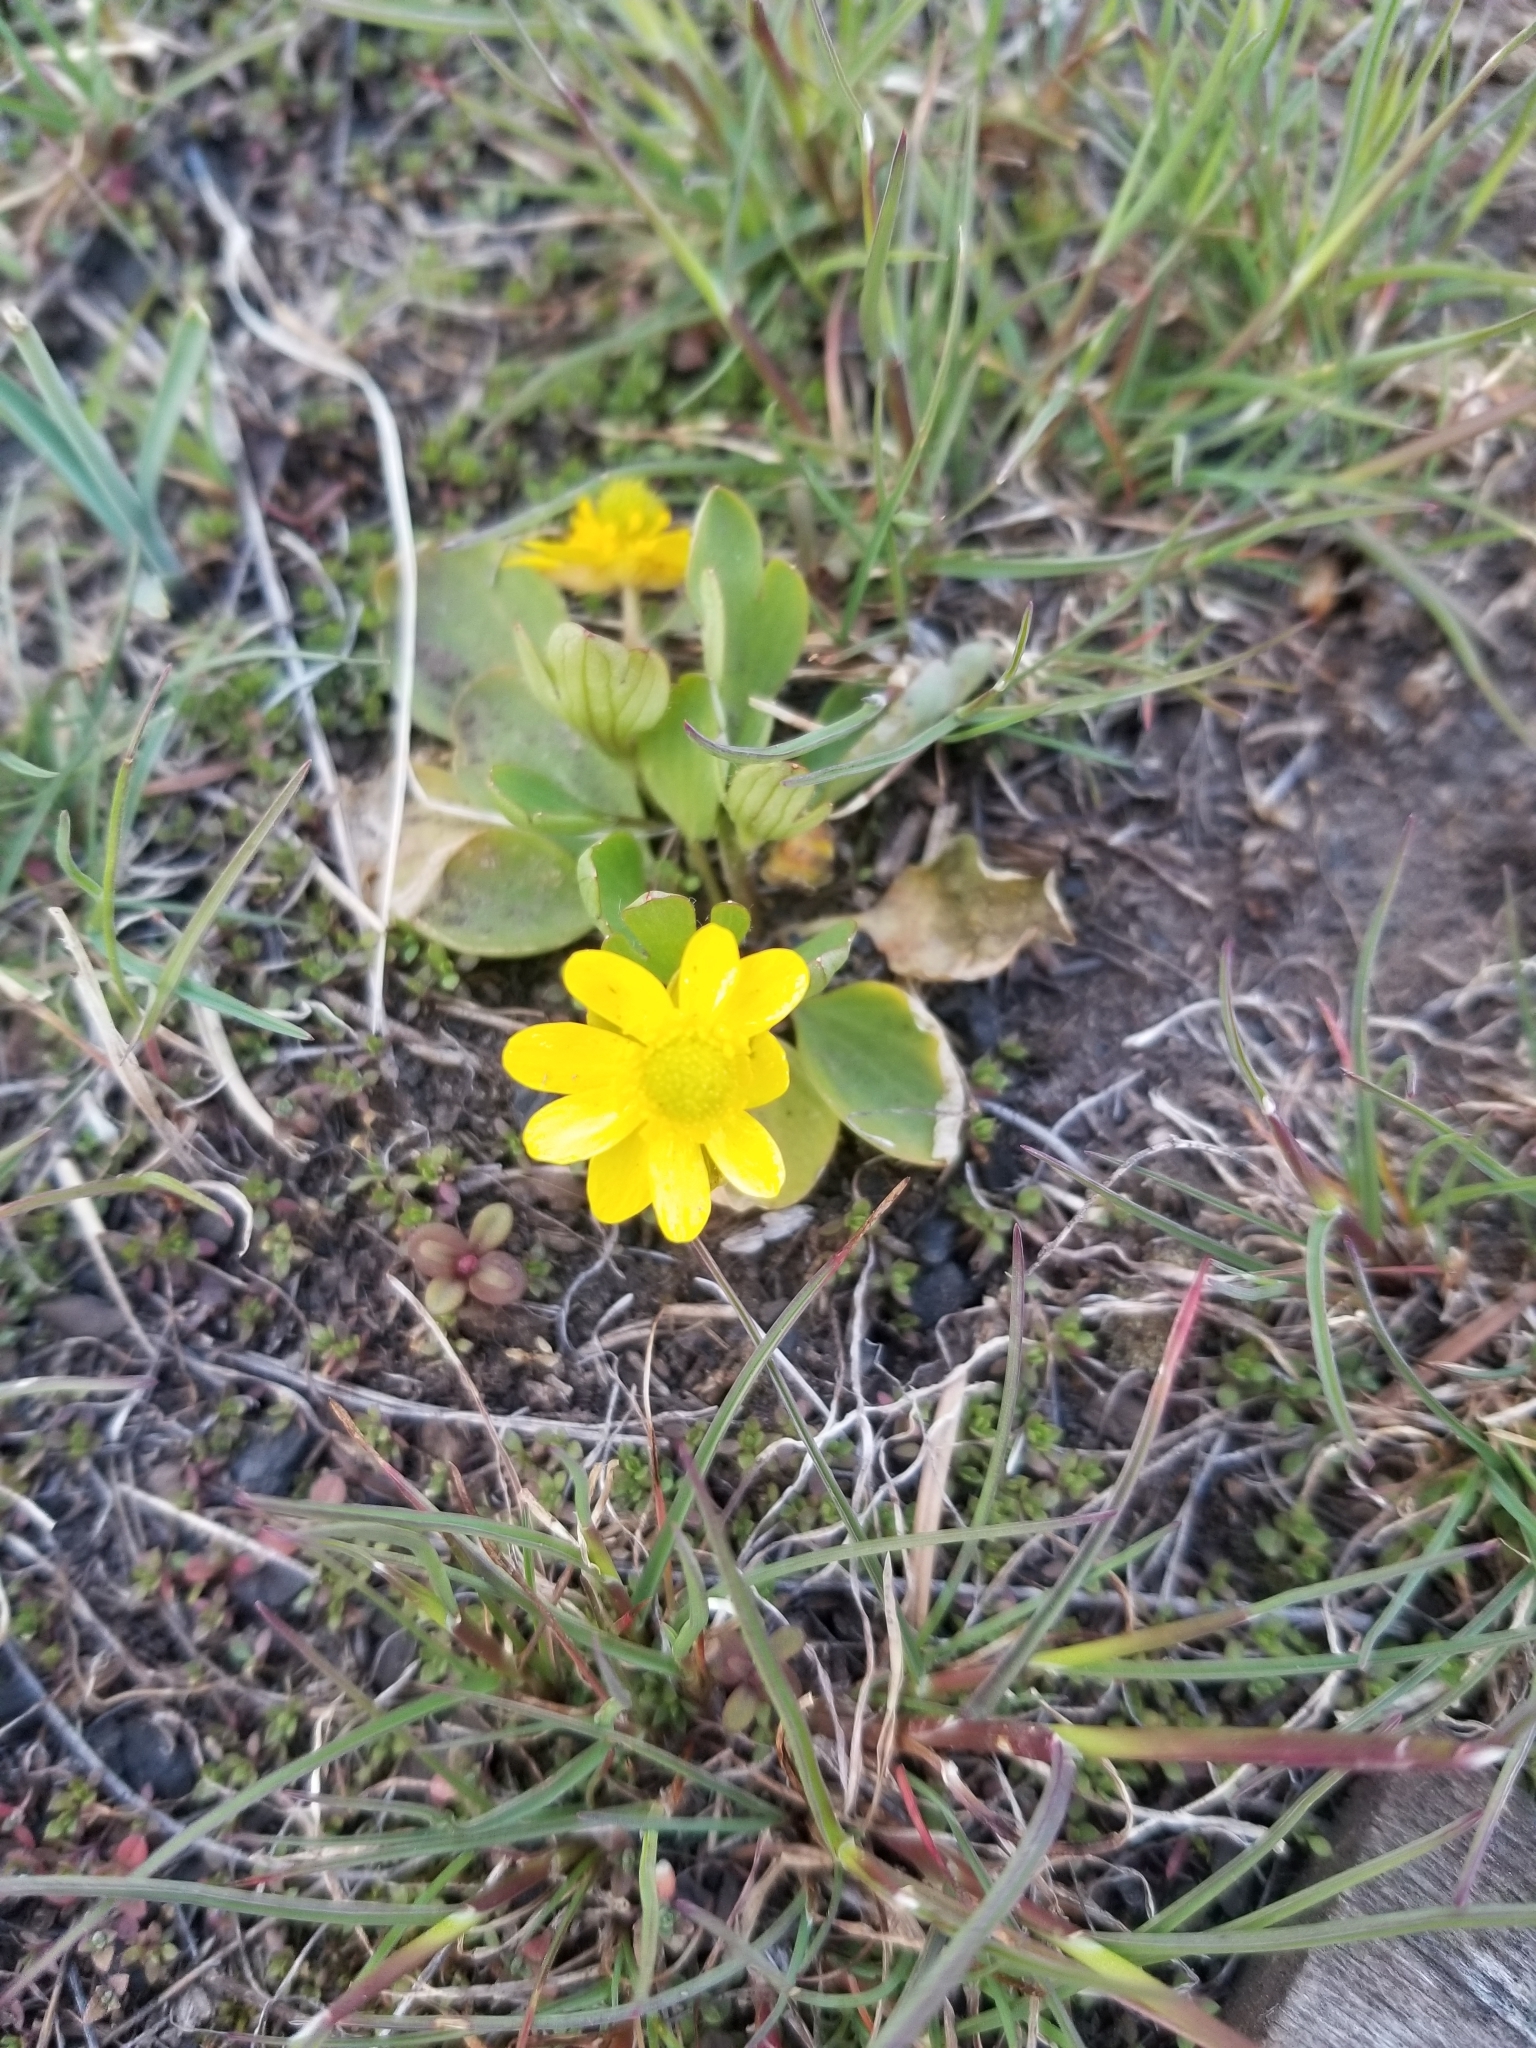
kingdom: Plantae
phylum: Tracheophyta
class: Magnoliopsida
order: Ranunculales
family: Ranunculaceae
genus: Ranunculus
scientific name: Ranunculus glaberrimus
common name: Sagebrush buttercup
